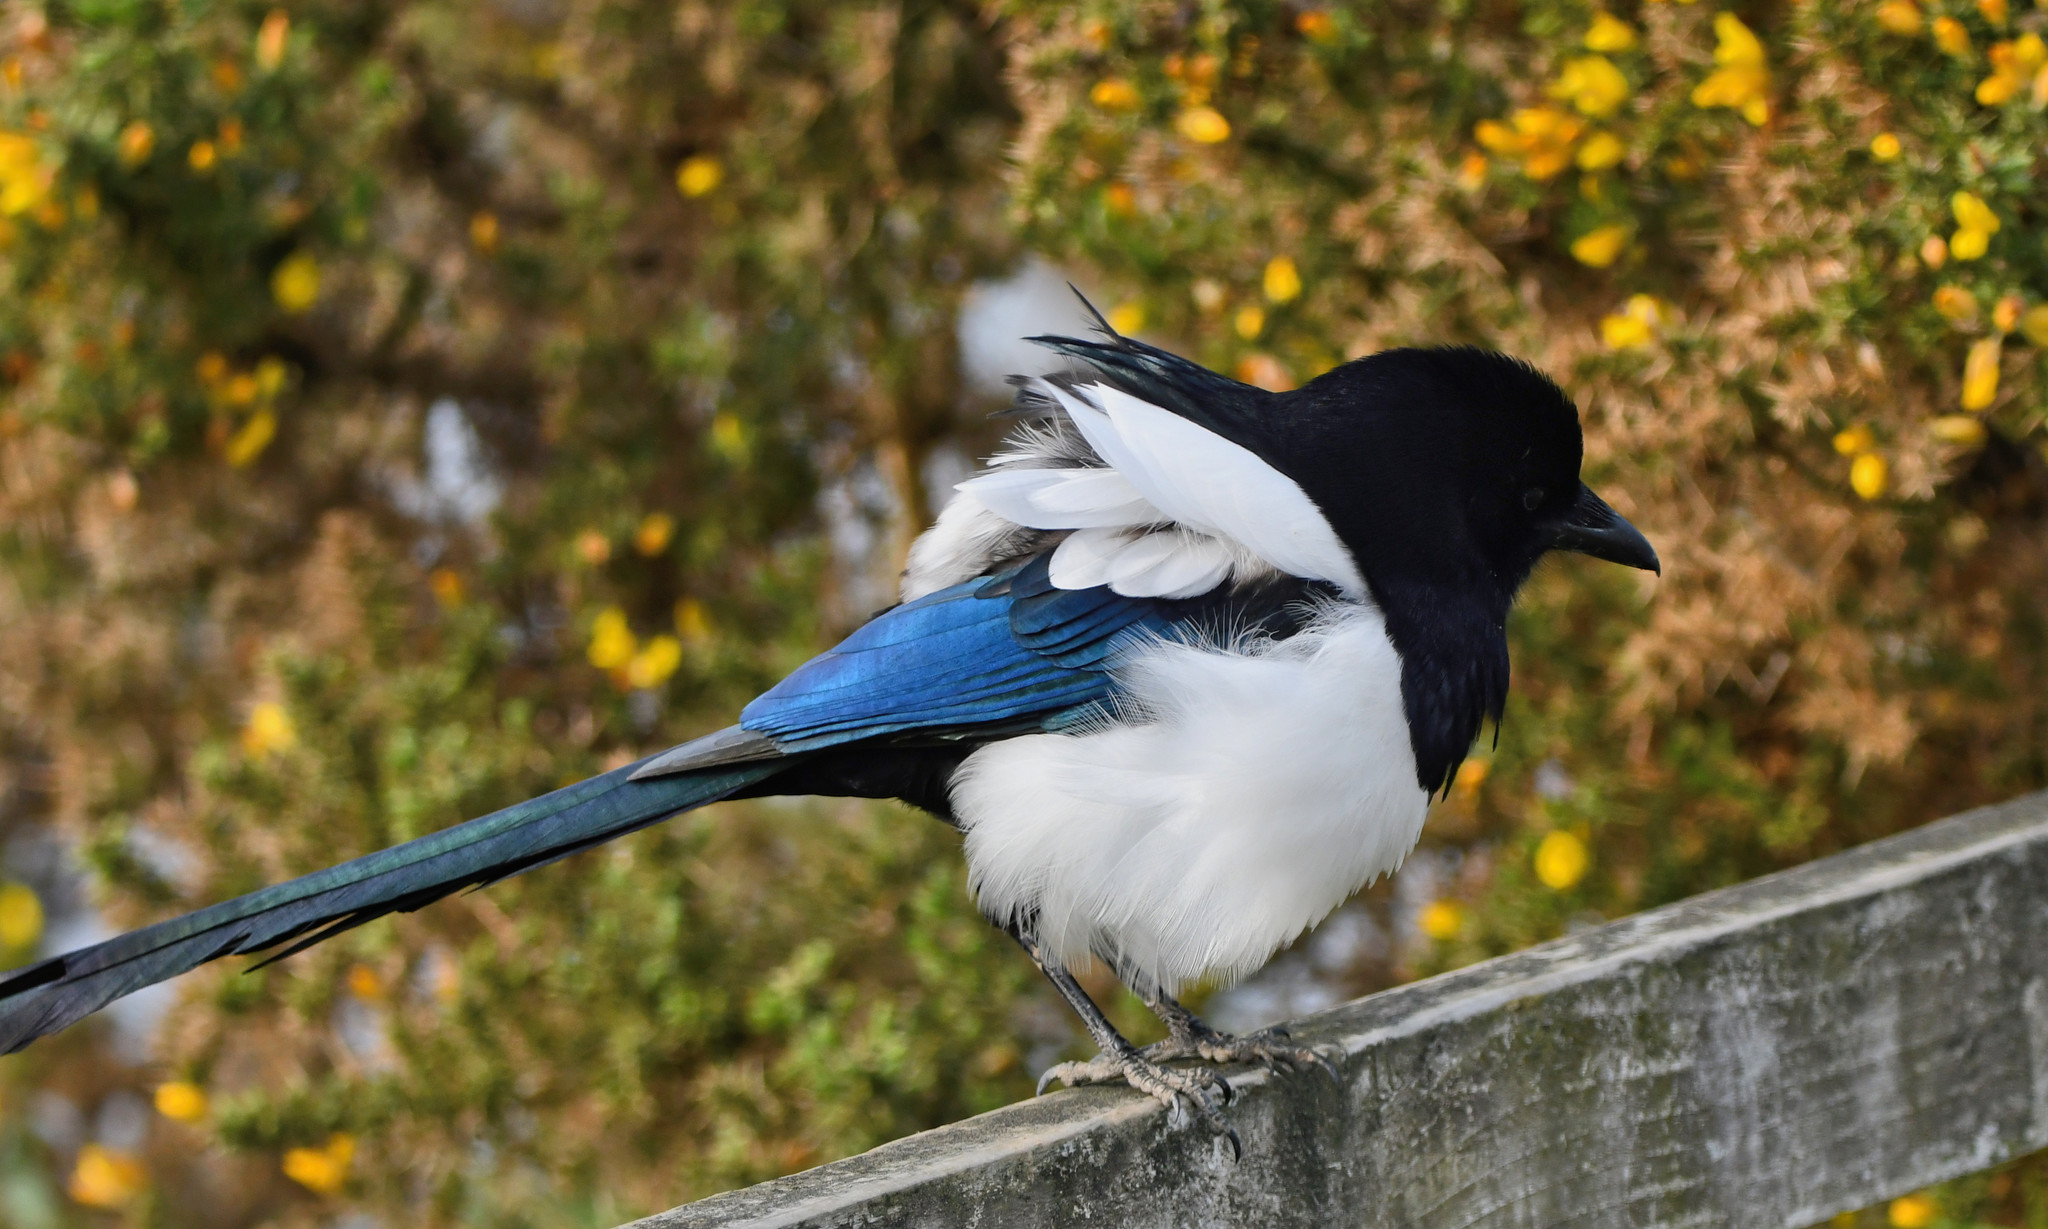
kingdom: Animalia
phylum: Chordata
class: Aves
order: Passeriformes
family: Corvidae
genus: Pica
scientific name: Pica pica
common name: Eurasian magpie
